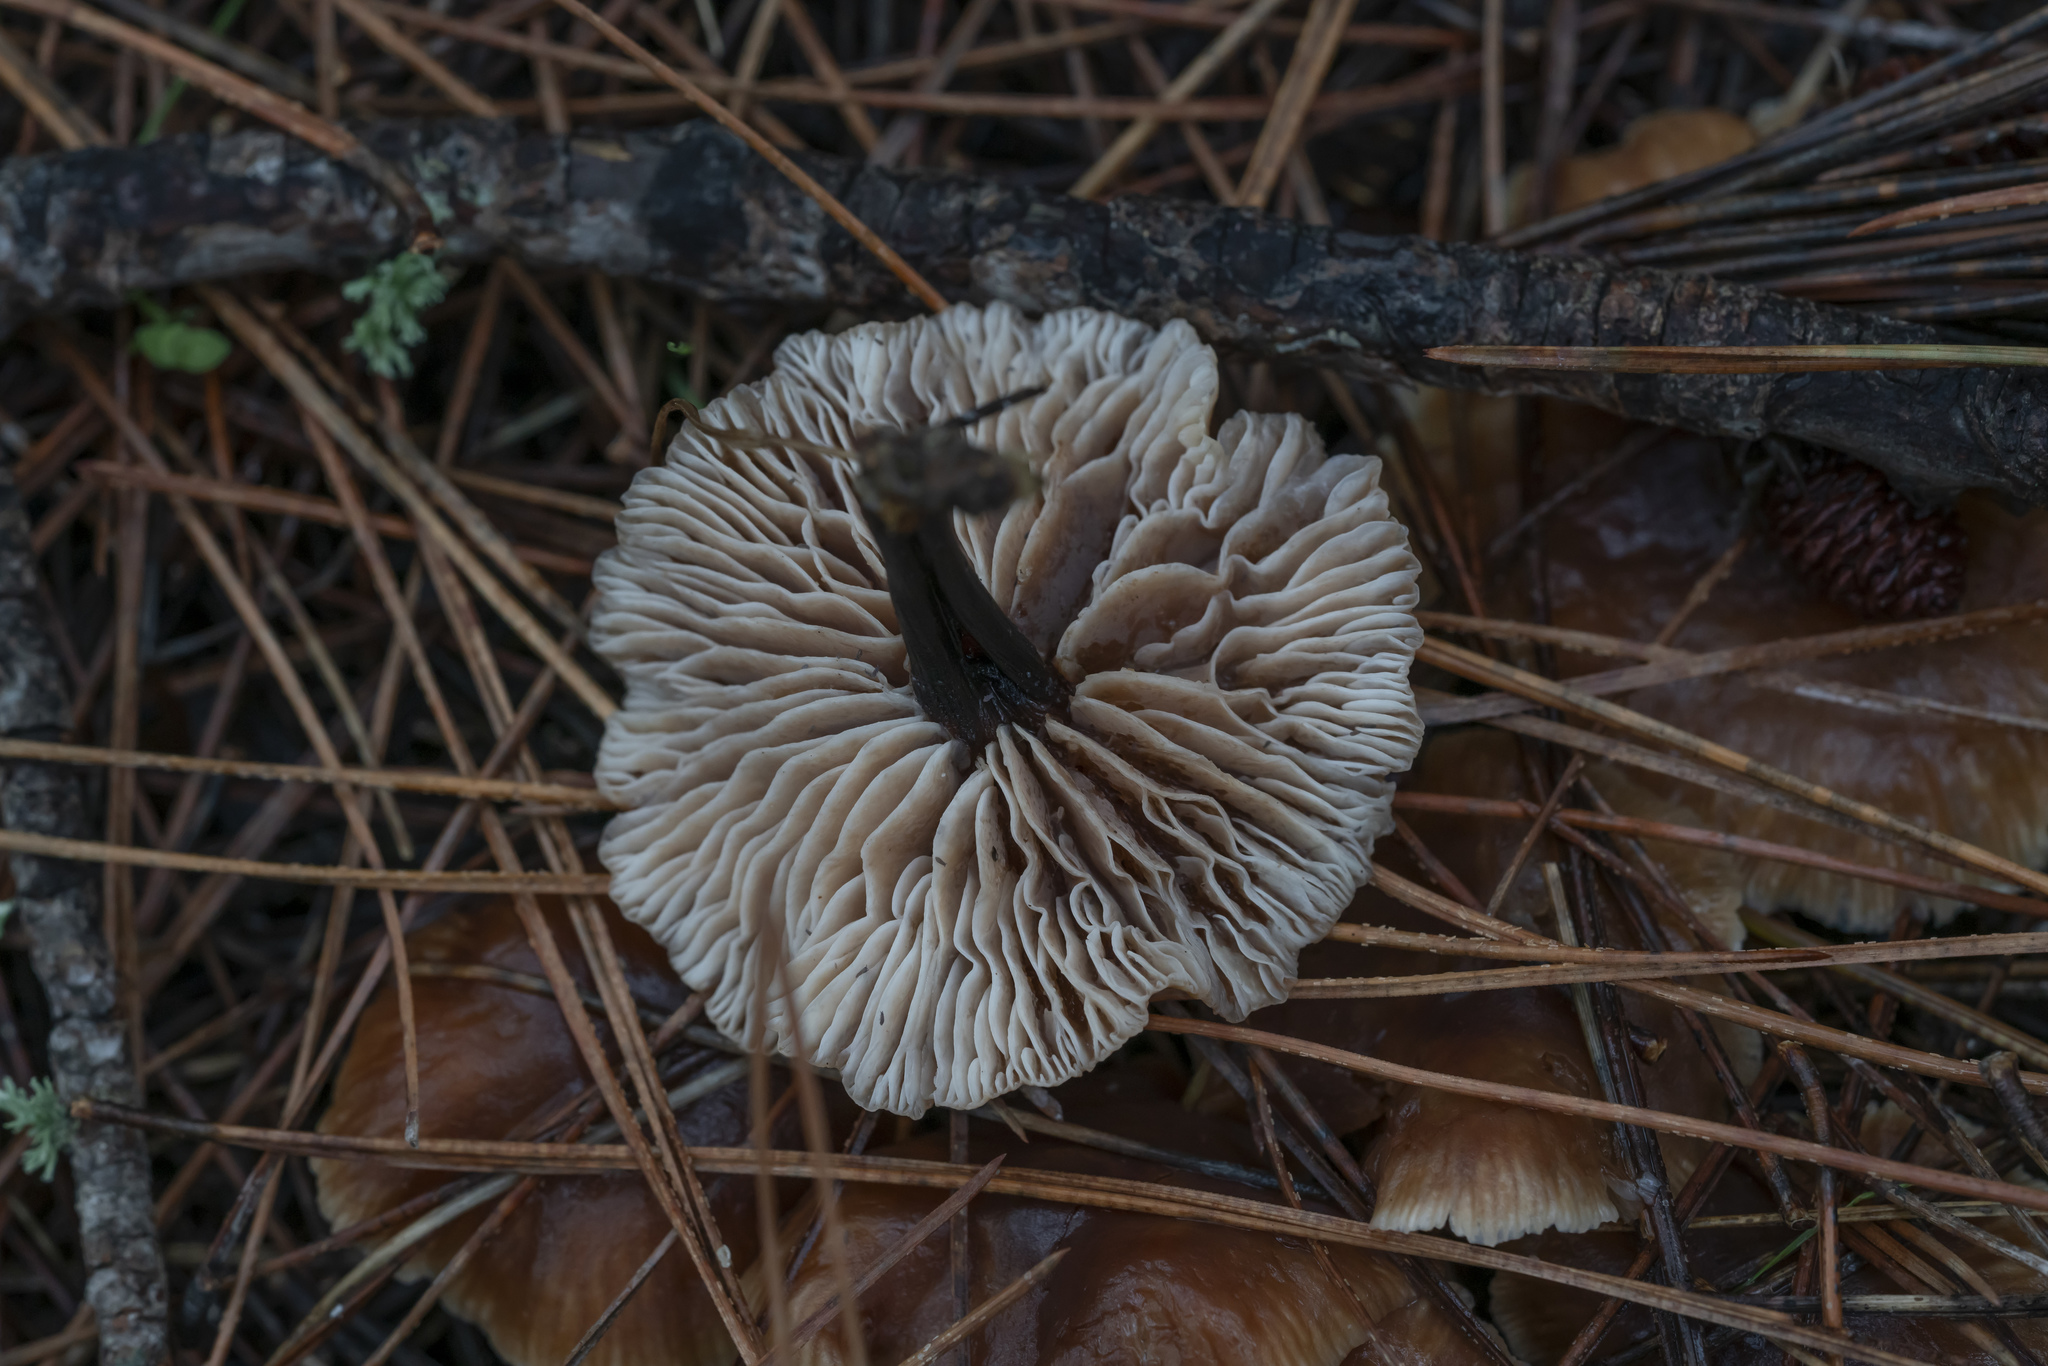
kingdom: Fungi
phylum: Basidiomycota
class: Agaricomycetes
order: Agaricales
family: Omphalotaceae
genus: Gymnopus
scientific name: Gymnopus brassicolens
